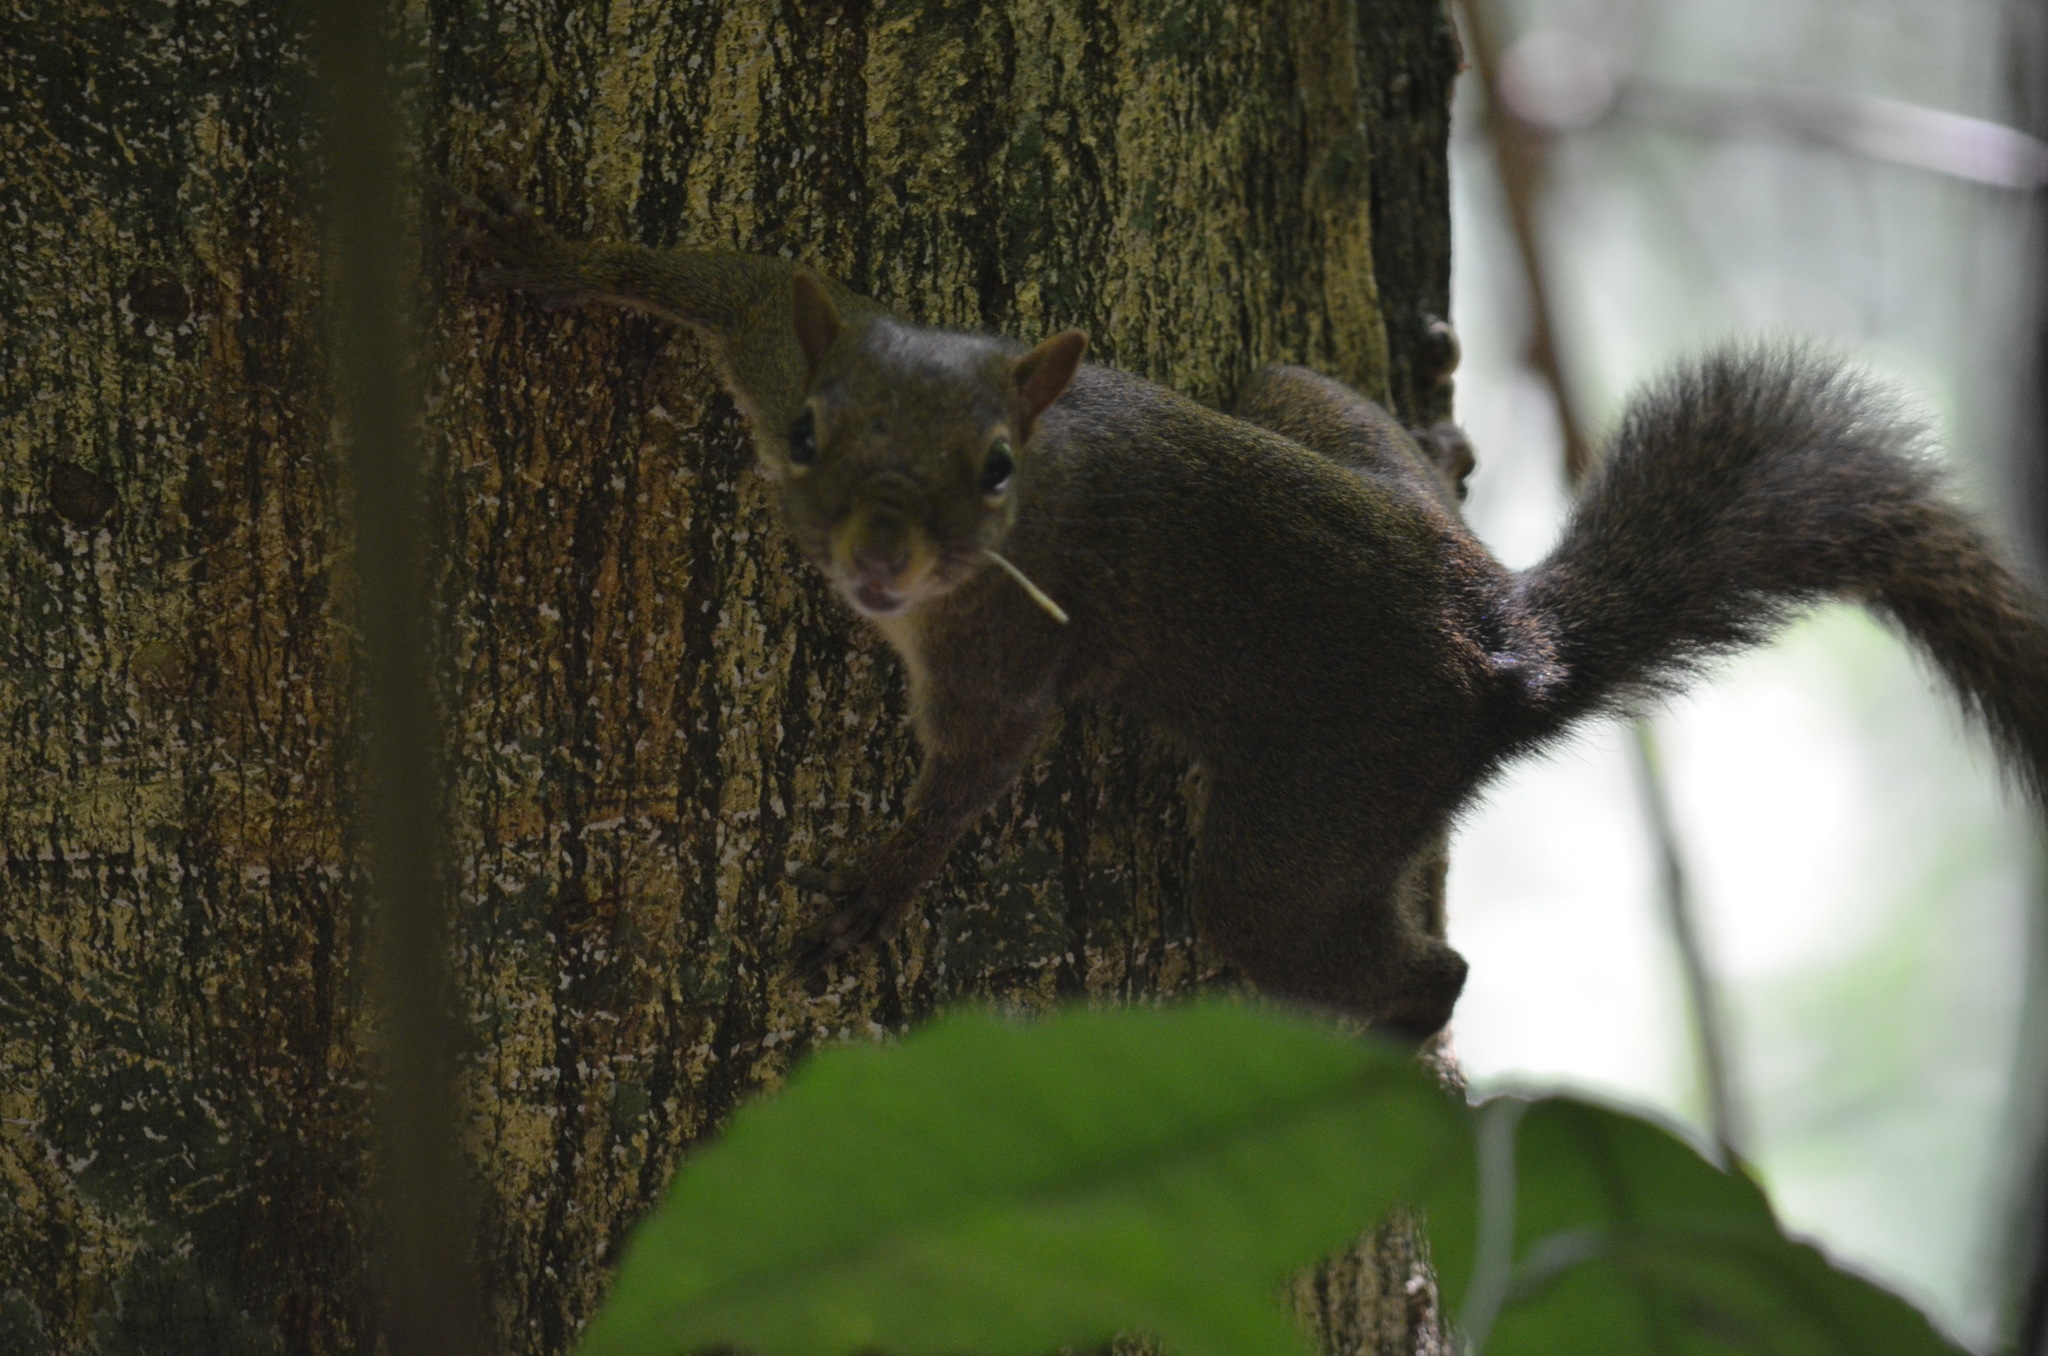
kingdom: Animalia
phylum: Chordata
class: Mammalia
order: Rodentia
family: Sciuridae
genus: Sciurus
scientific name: Sciurus aestuans
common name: Guianan squirrel
